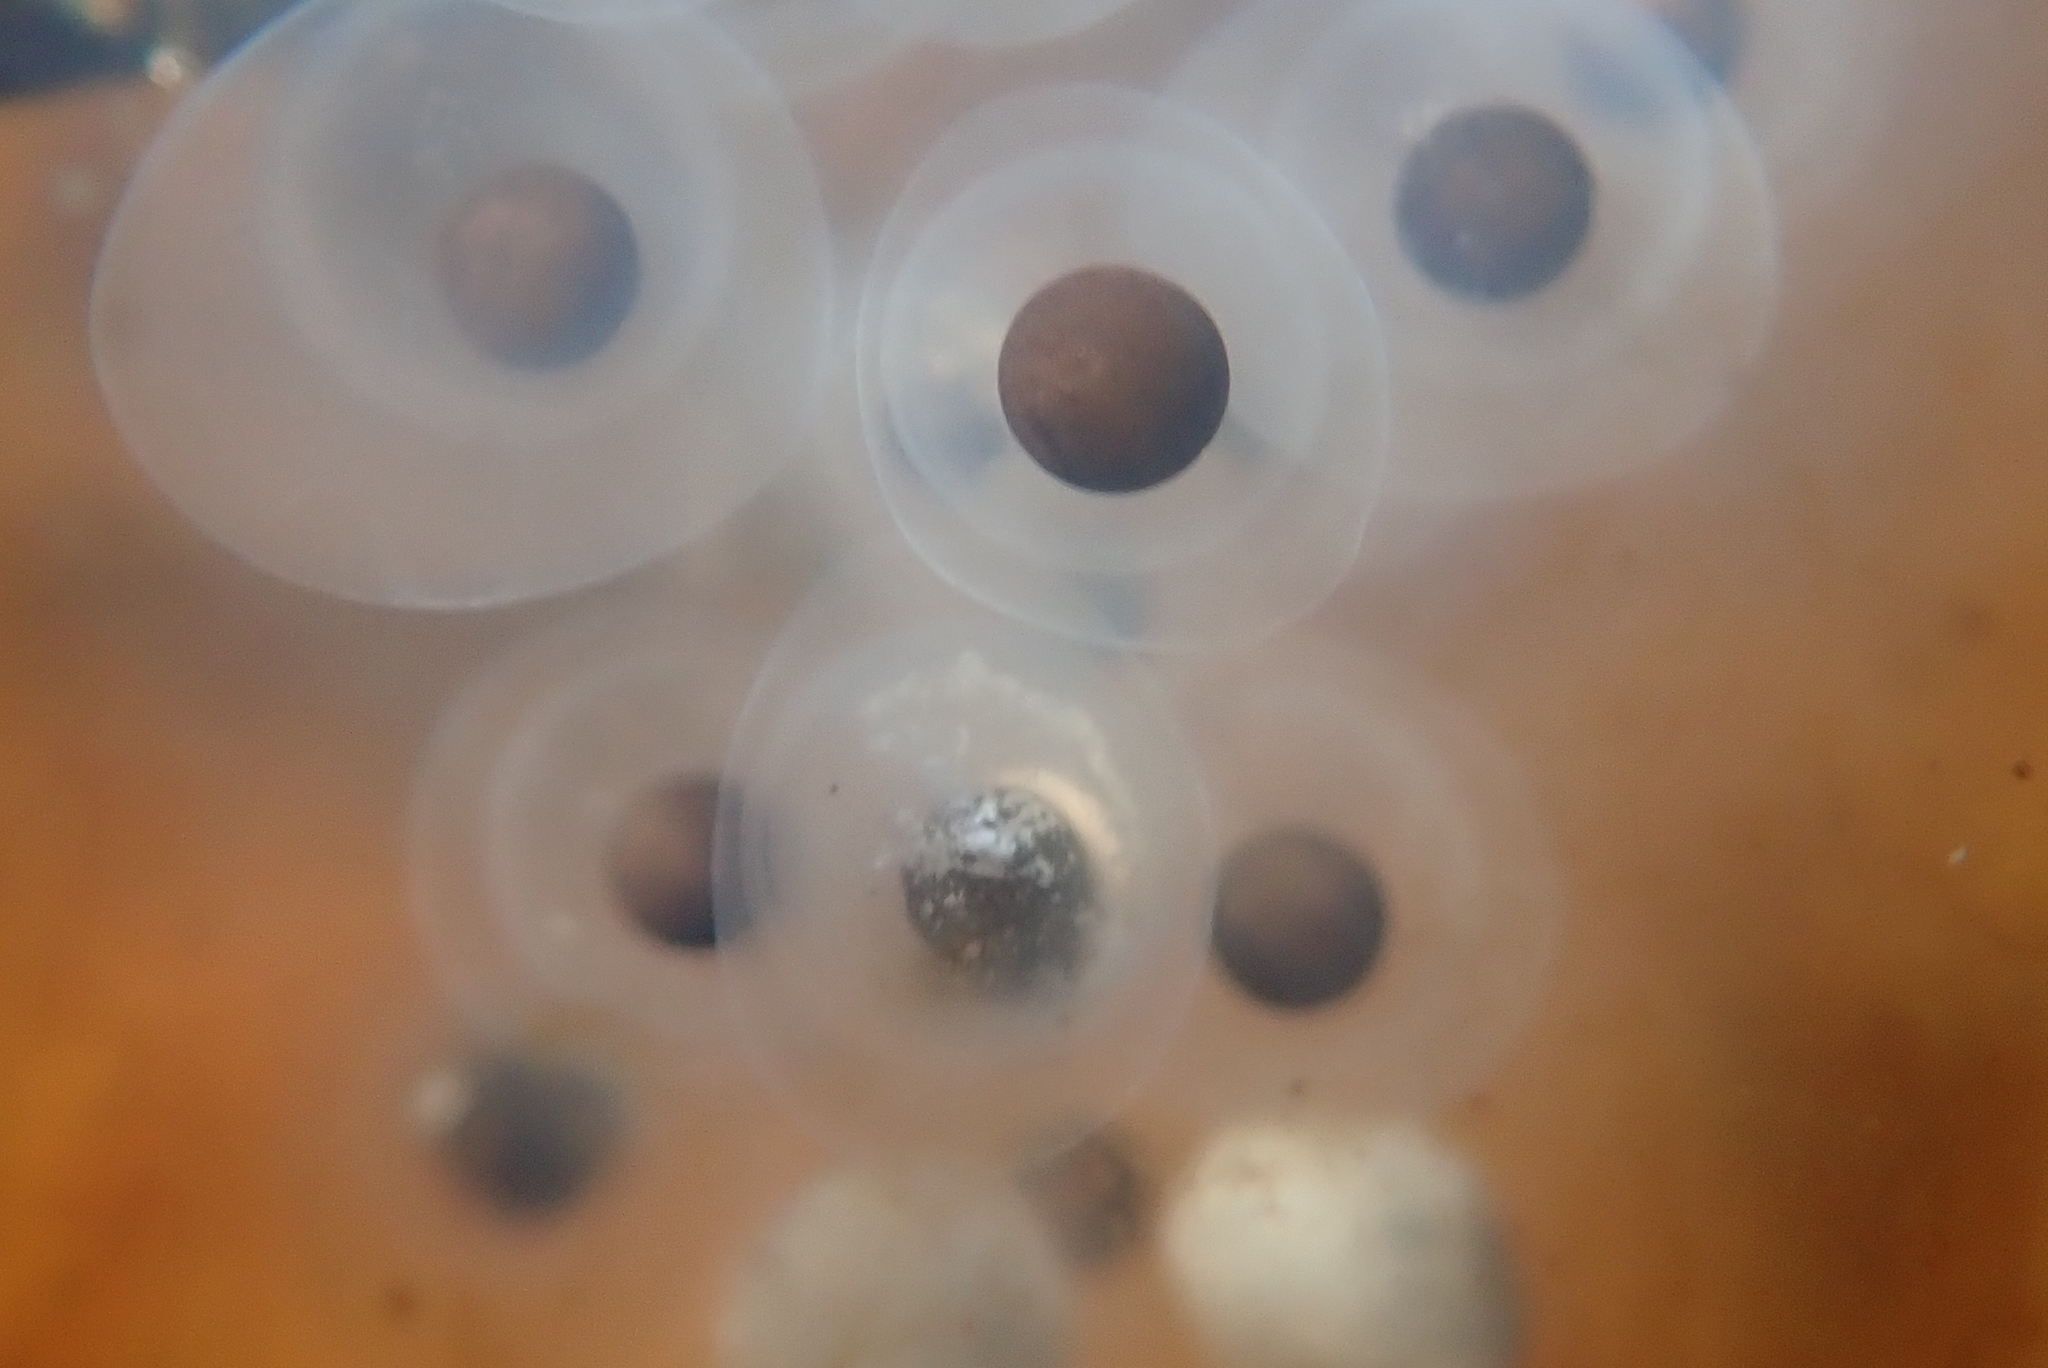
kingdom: Animalia
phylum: Chordata
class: Amphibia
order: Caudata
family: Ambystomatidae
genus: Ambystoma
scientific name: Ambystoma maculatum
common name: Spotted salamander
